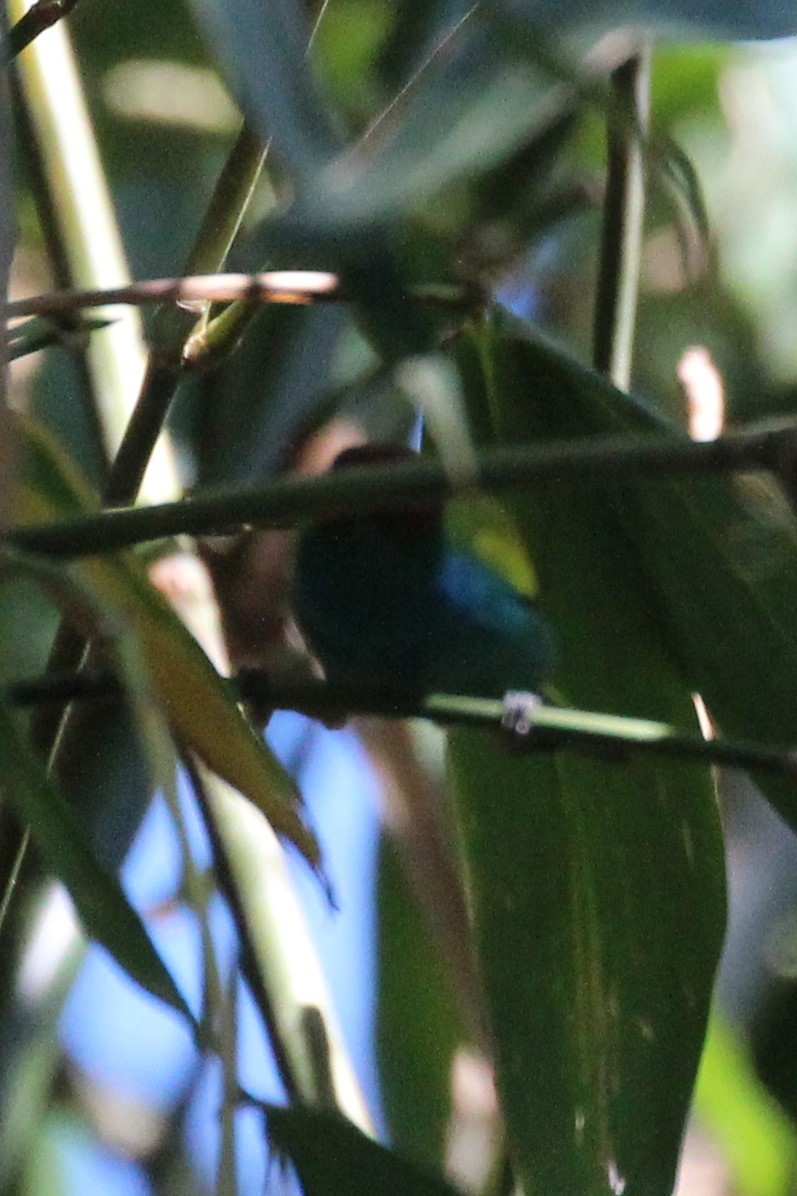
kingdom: Animalia
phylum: Chordata
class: Aves
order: Passeriformes
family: Thraupidae
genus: Tangara
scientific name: Tangara gyrola
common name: Bay-headed tanager
